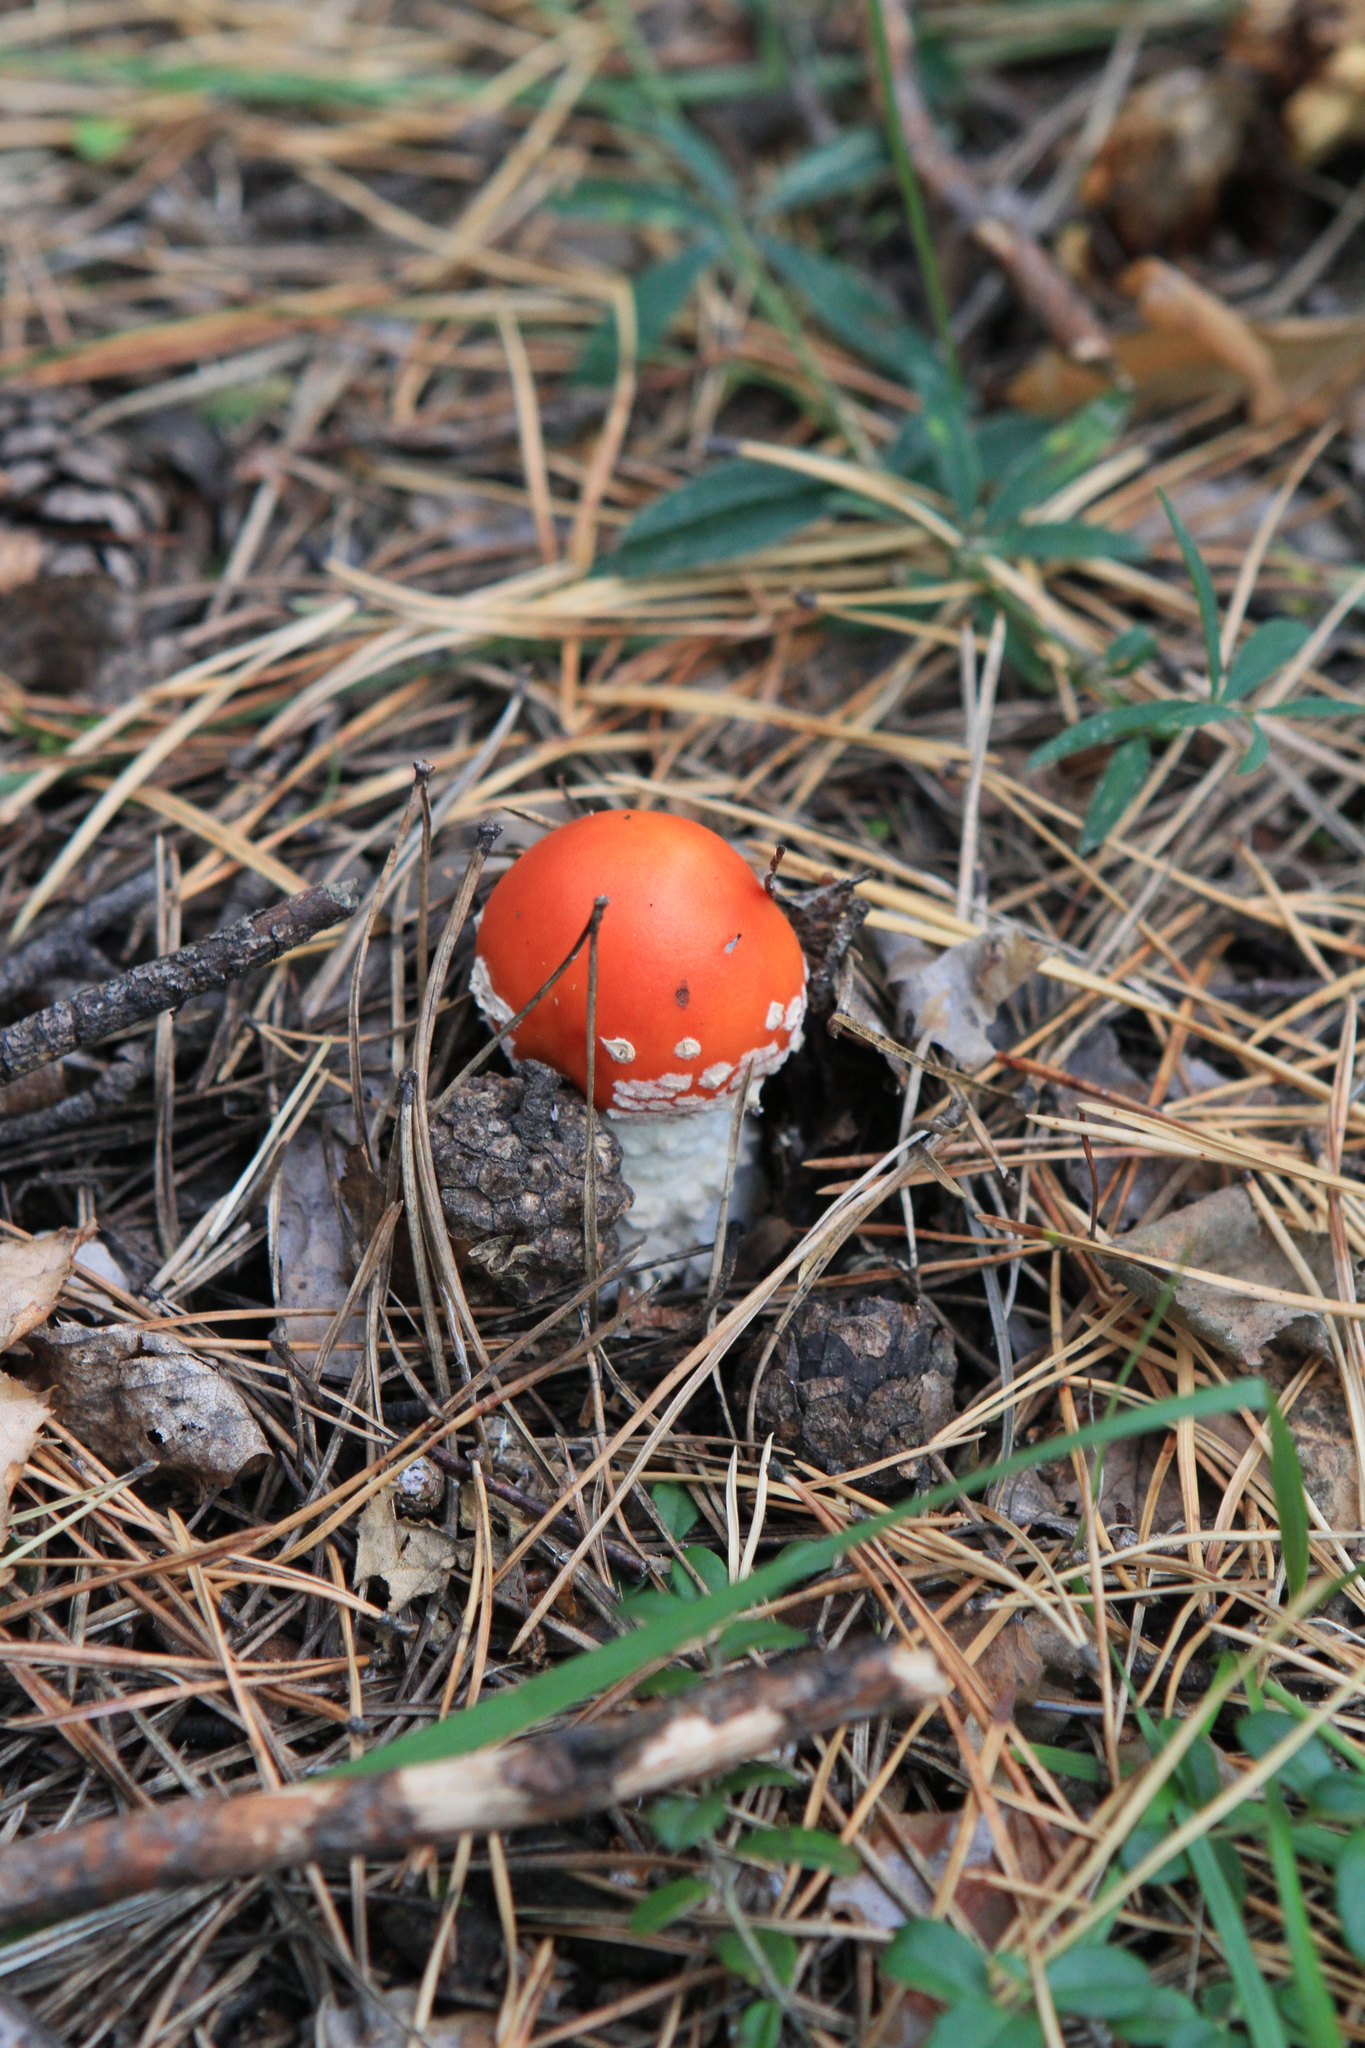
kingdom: Fungi
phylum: Basidiomycota
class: Agaricomycetes
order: Agaricales
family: Amanitaceae
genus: Amanita
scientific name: Amanita muscaria
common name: Fly agaric
